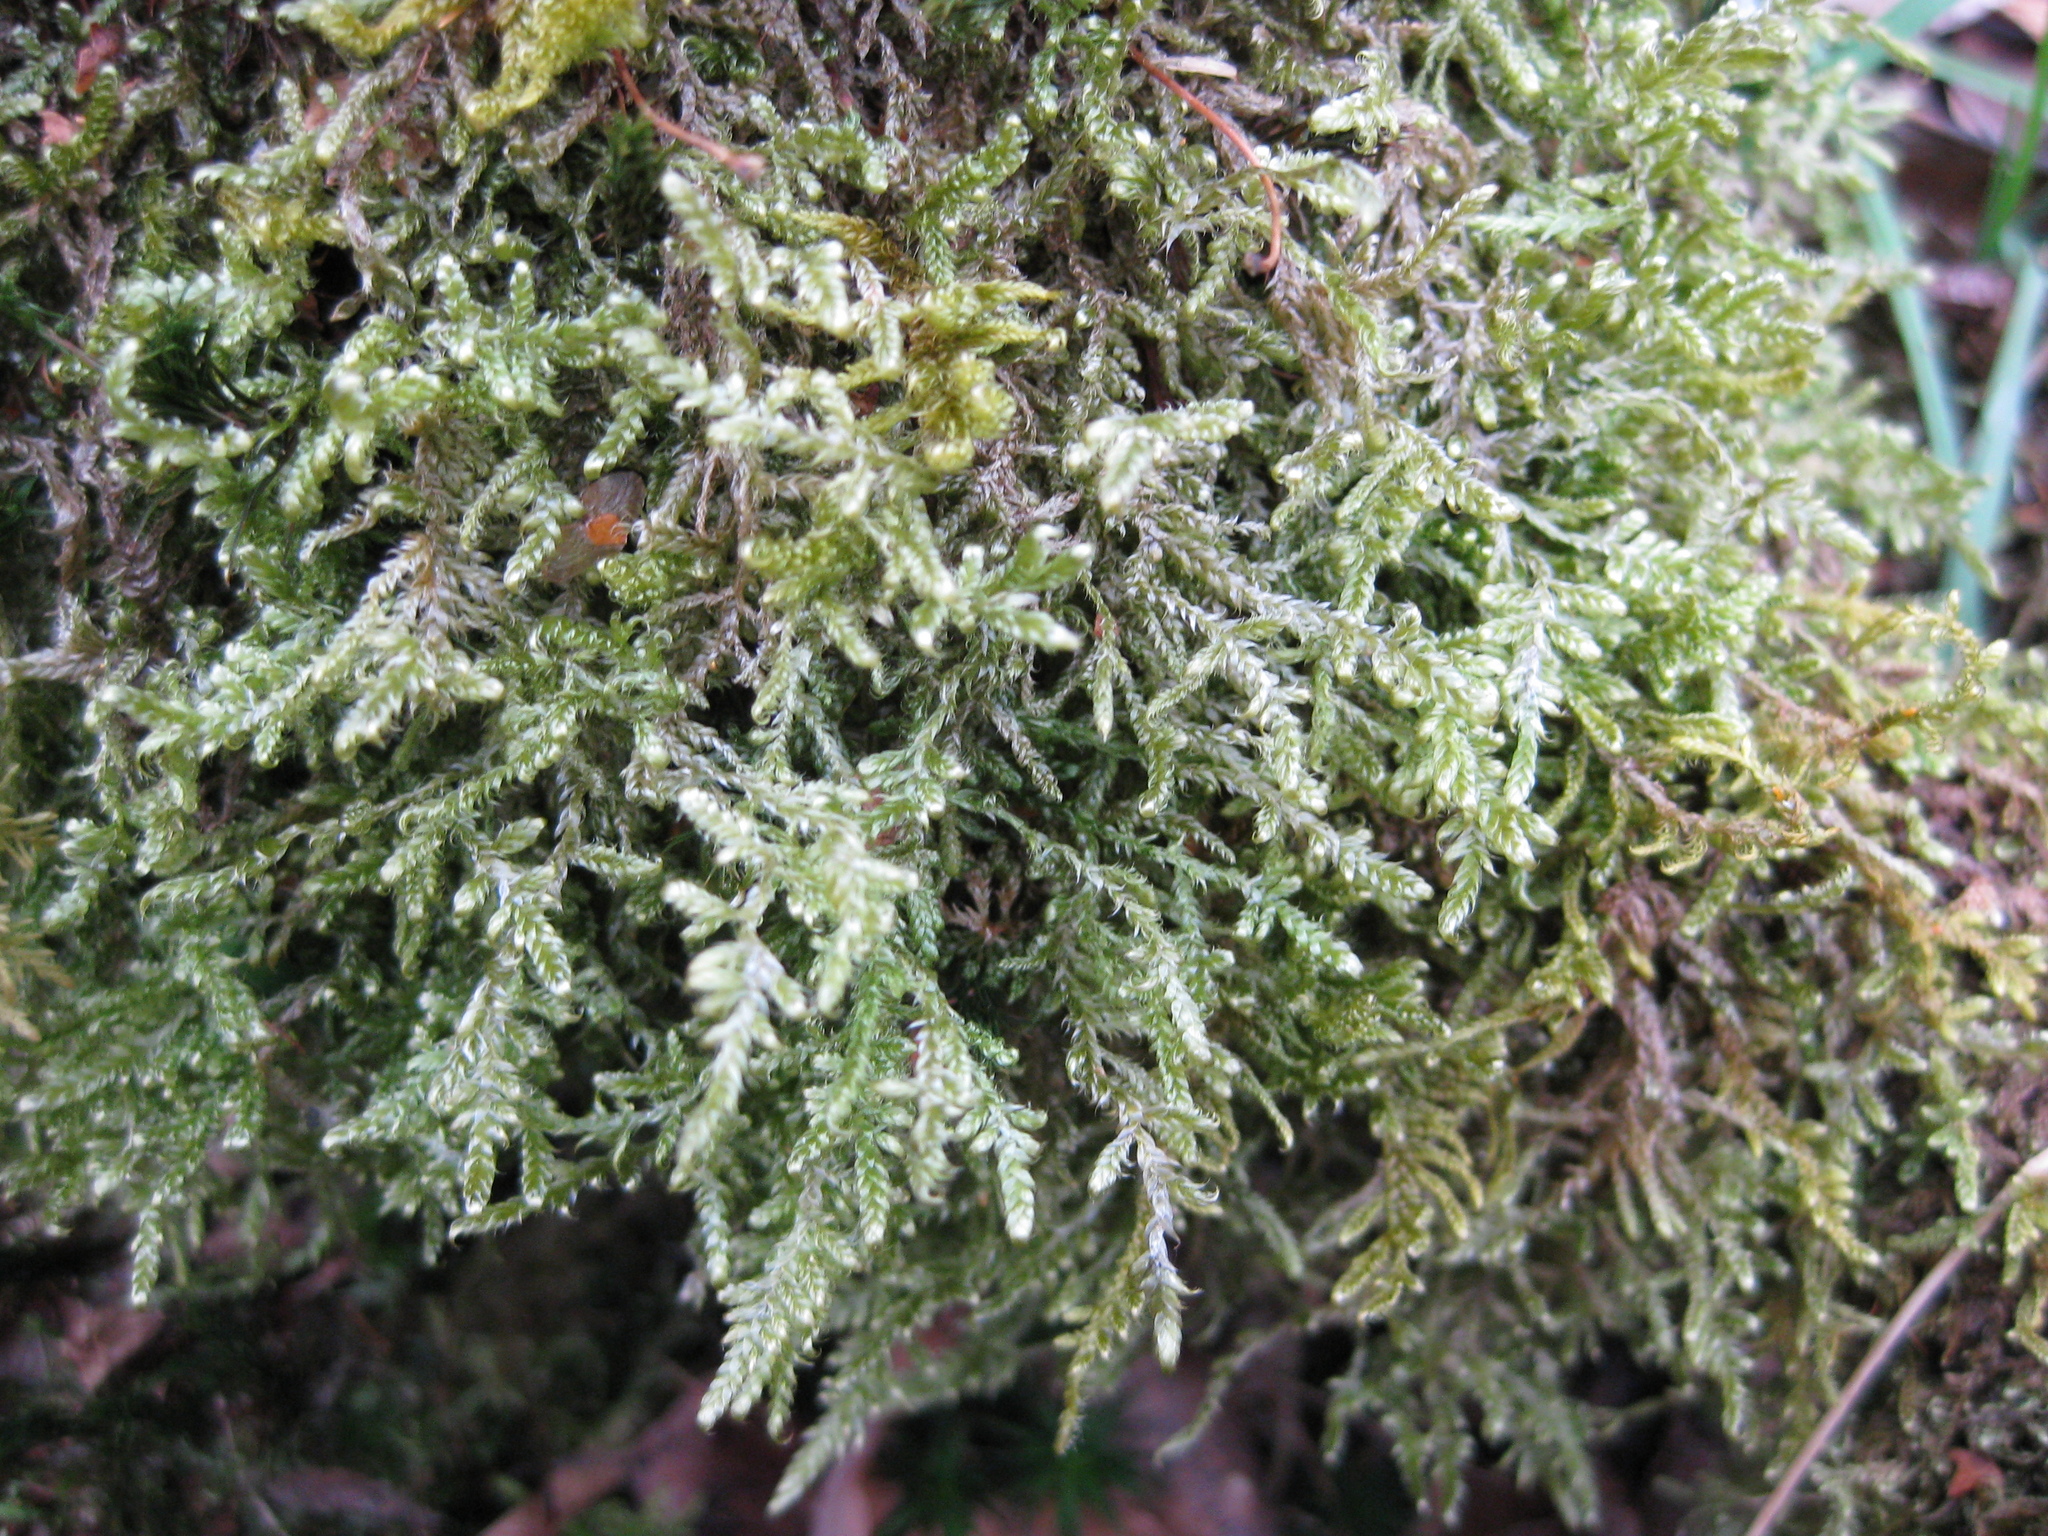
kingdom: Plantae
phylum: Bryophyta
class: Bryopsida
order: Hypnales
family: Hypnaceae
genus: Hypnum
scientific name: Hypnum jutlandicum
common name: Heath plait-moss
